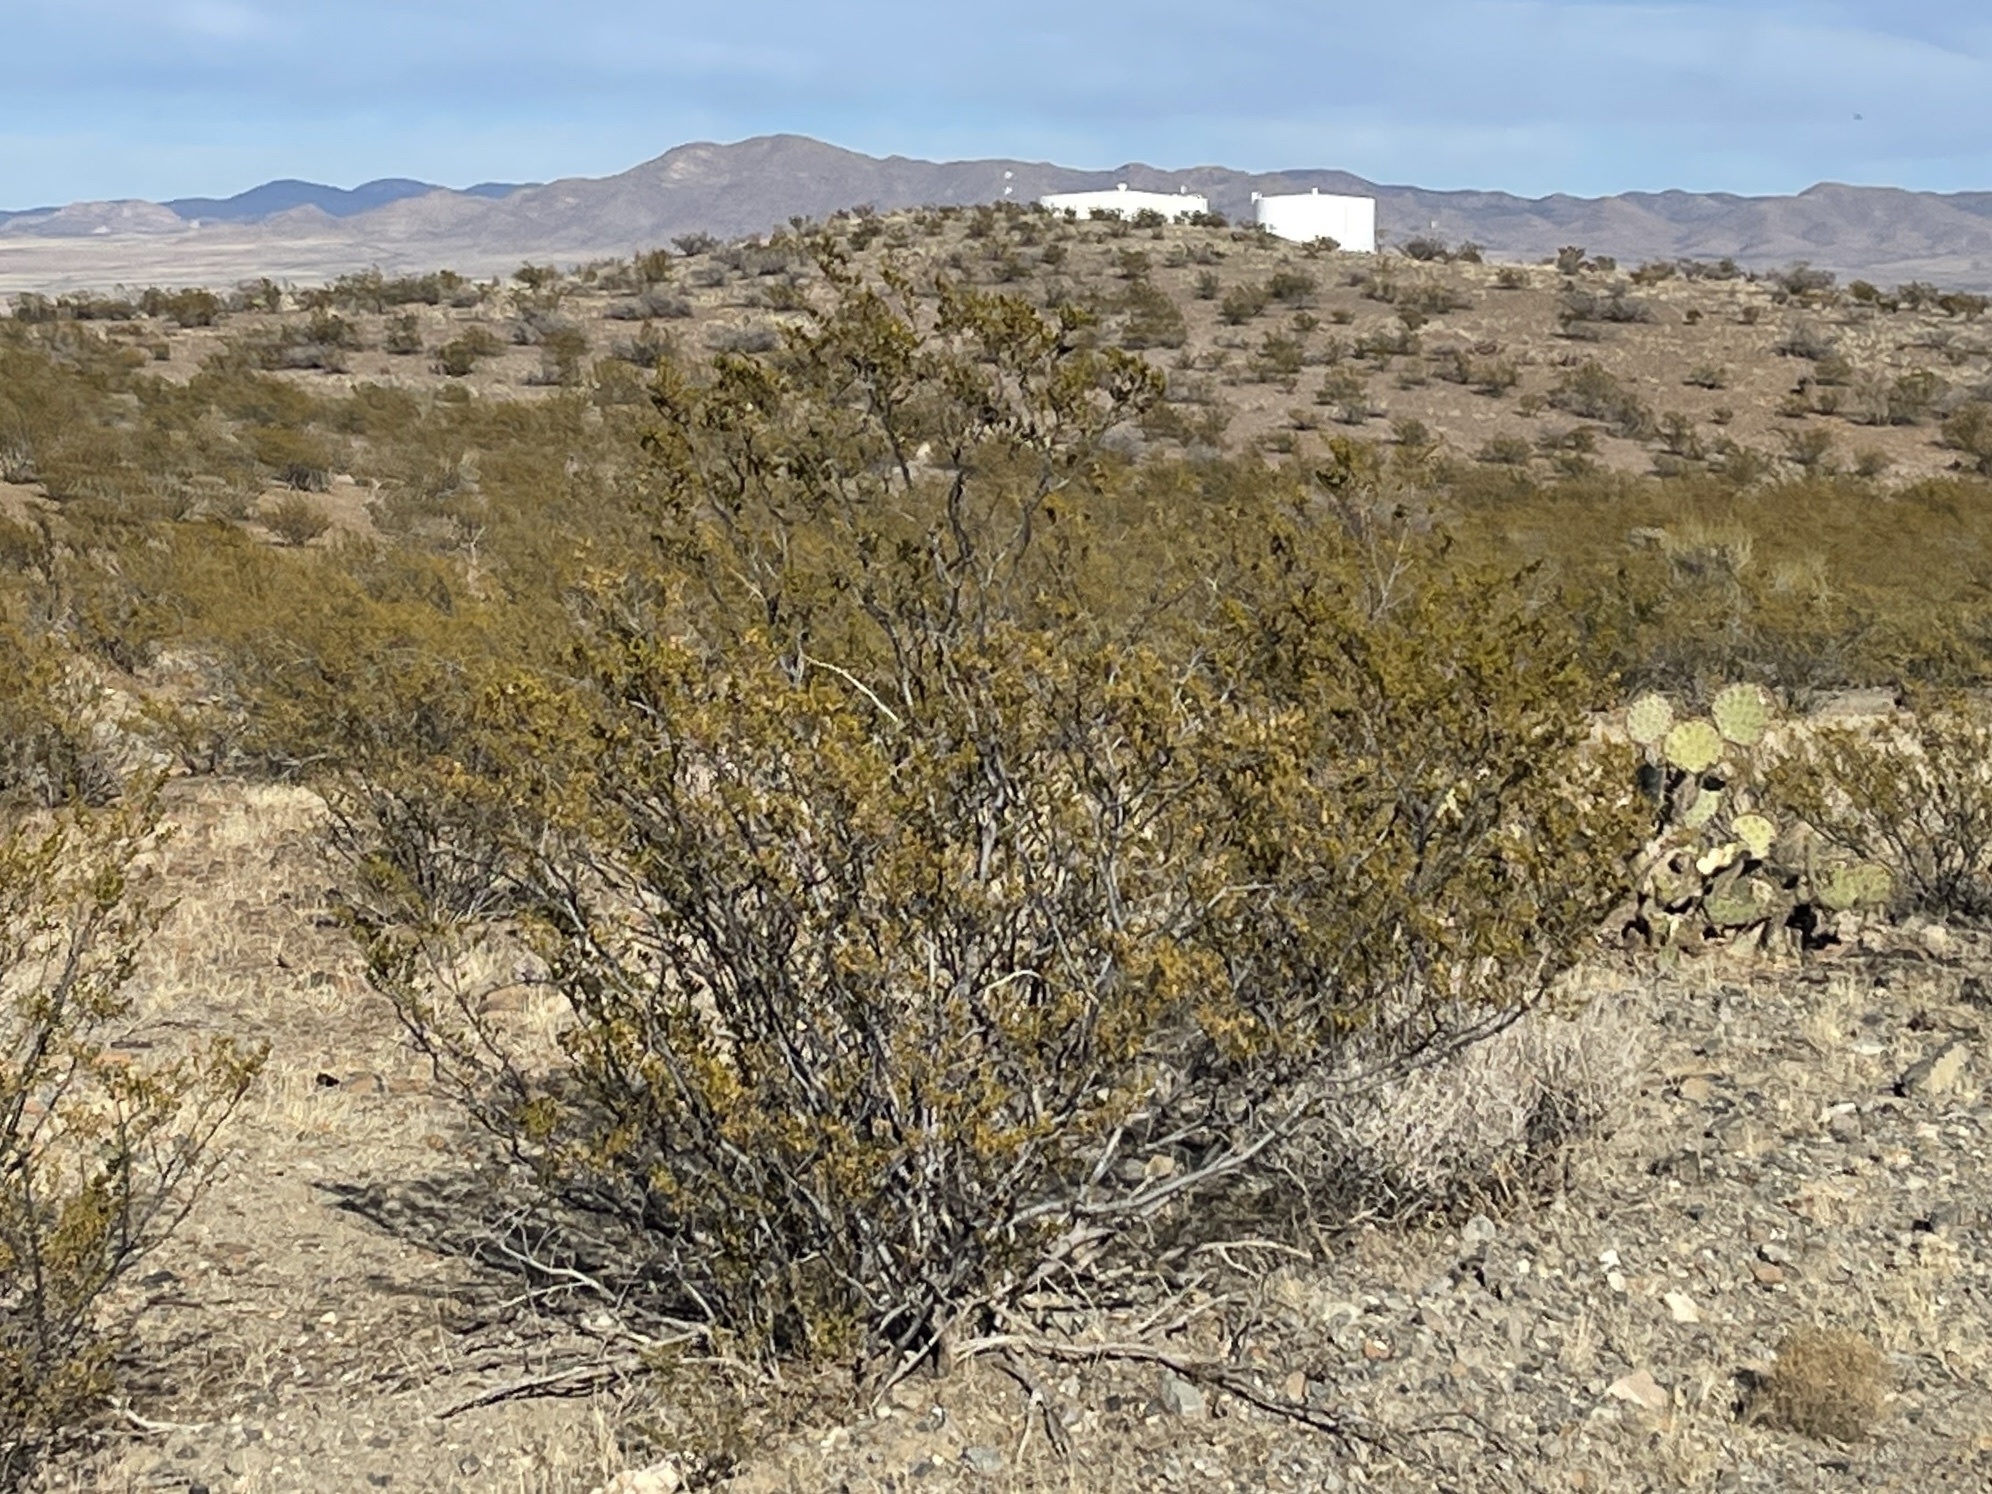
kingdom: Plantae
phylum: Tracheophyta
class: Magnoliopsida
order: Zygophyllales
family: Zygophyllaceae
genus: Larrea
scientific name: Larrea tridentata
